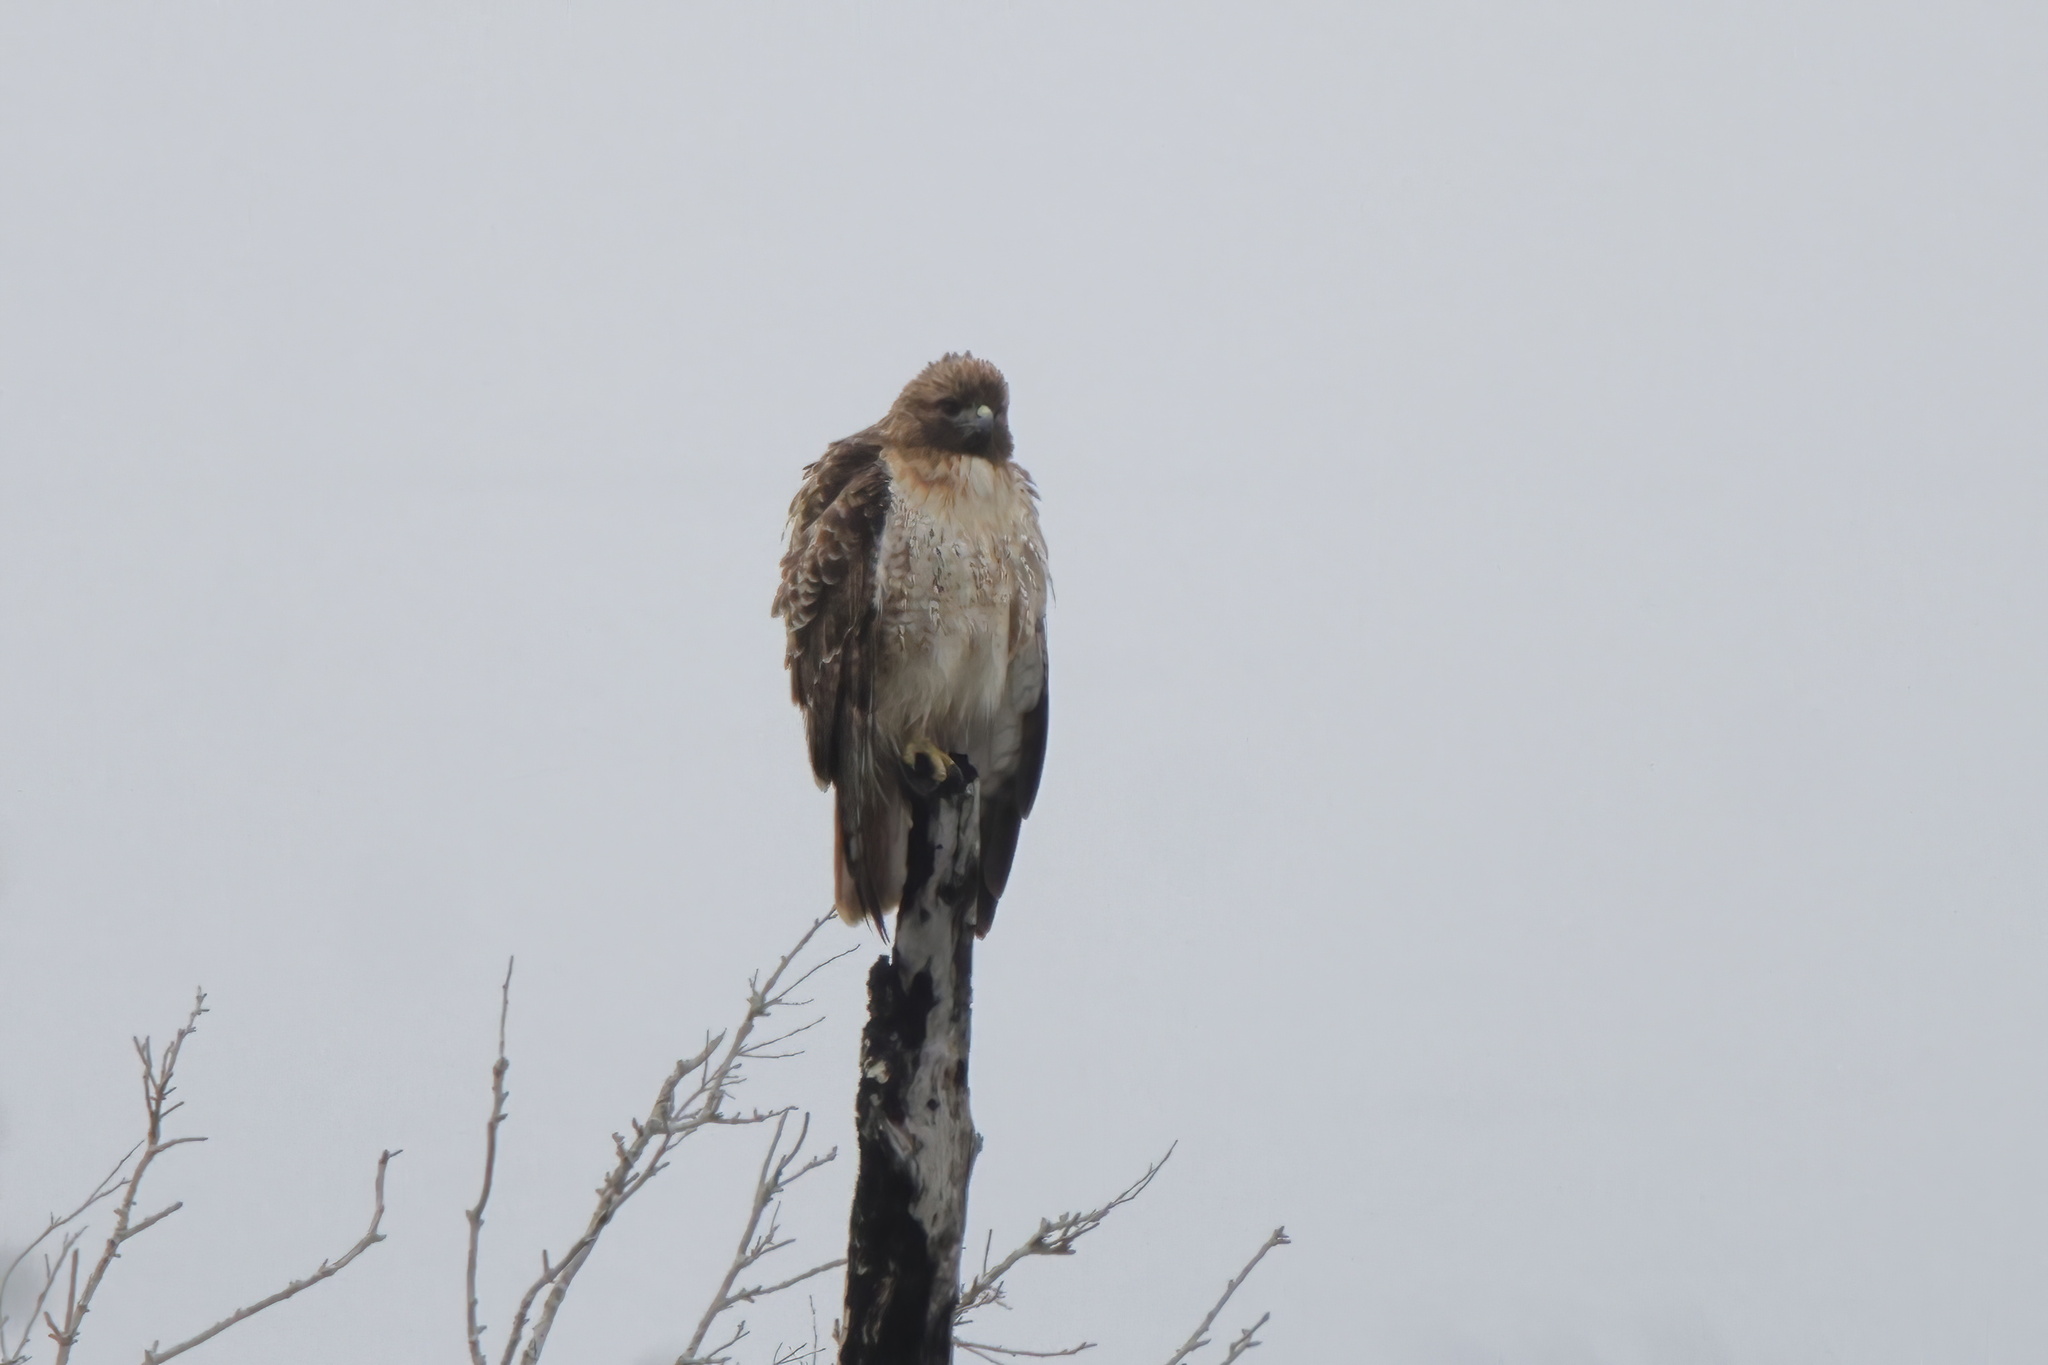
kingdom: Animalia
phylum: Chordata
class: Aves
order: Accipitriformes
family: Accipitridae
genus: Buteo
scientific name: Buteo jamaicensis
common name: Red-tailed hawk
